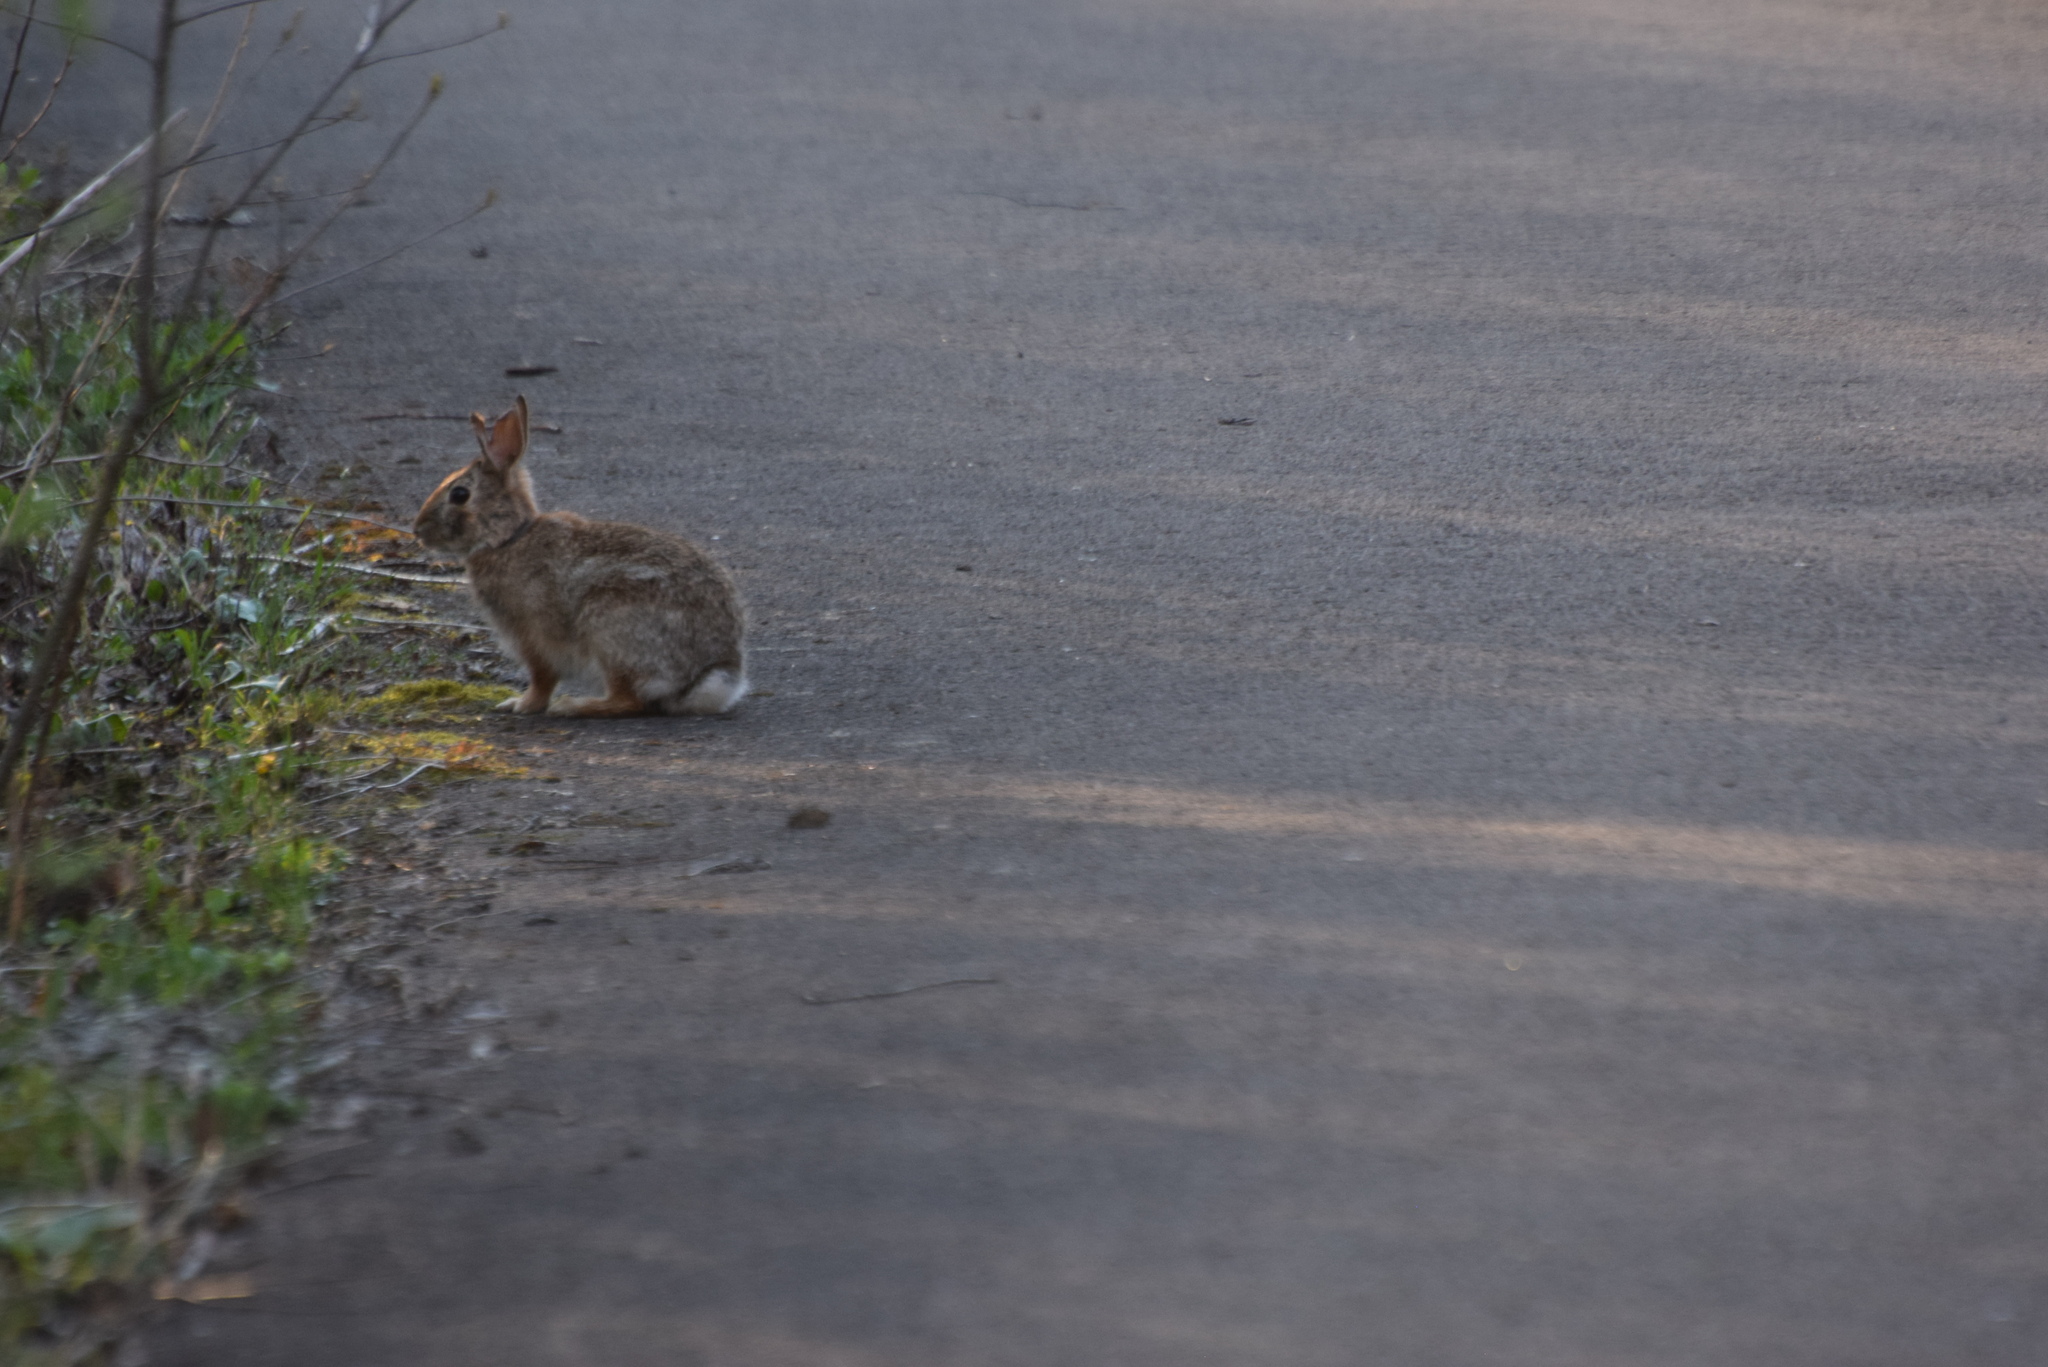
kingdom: Animalia
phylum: Chordata
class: Mammalia
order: Lagomorpha
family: Leporidae
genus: Sylvilagus
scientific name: Sylvilagus floridanus
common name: Eastern cottontail
